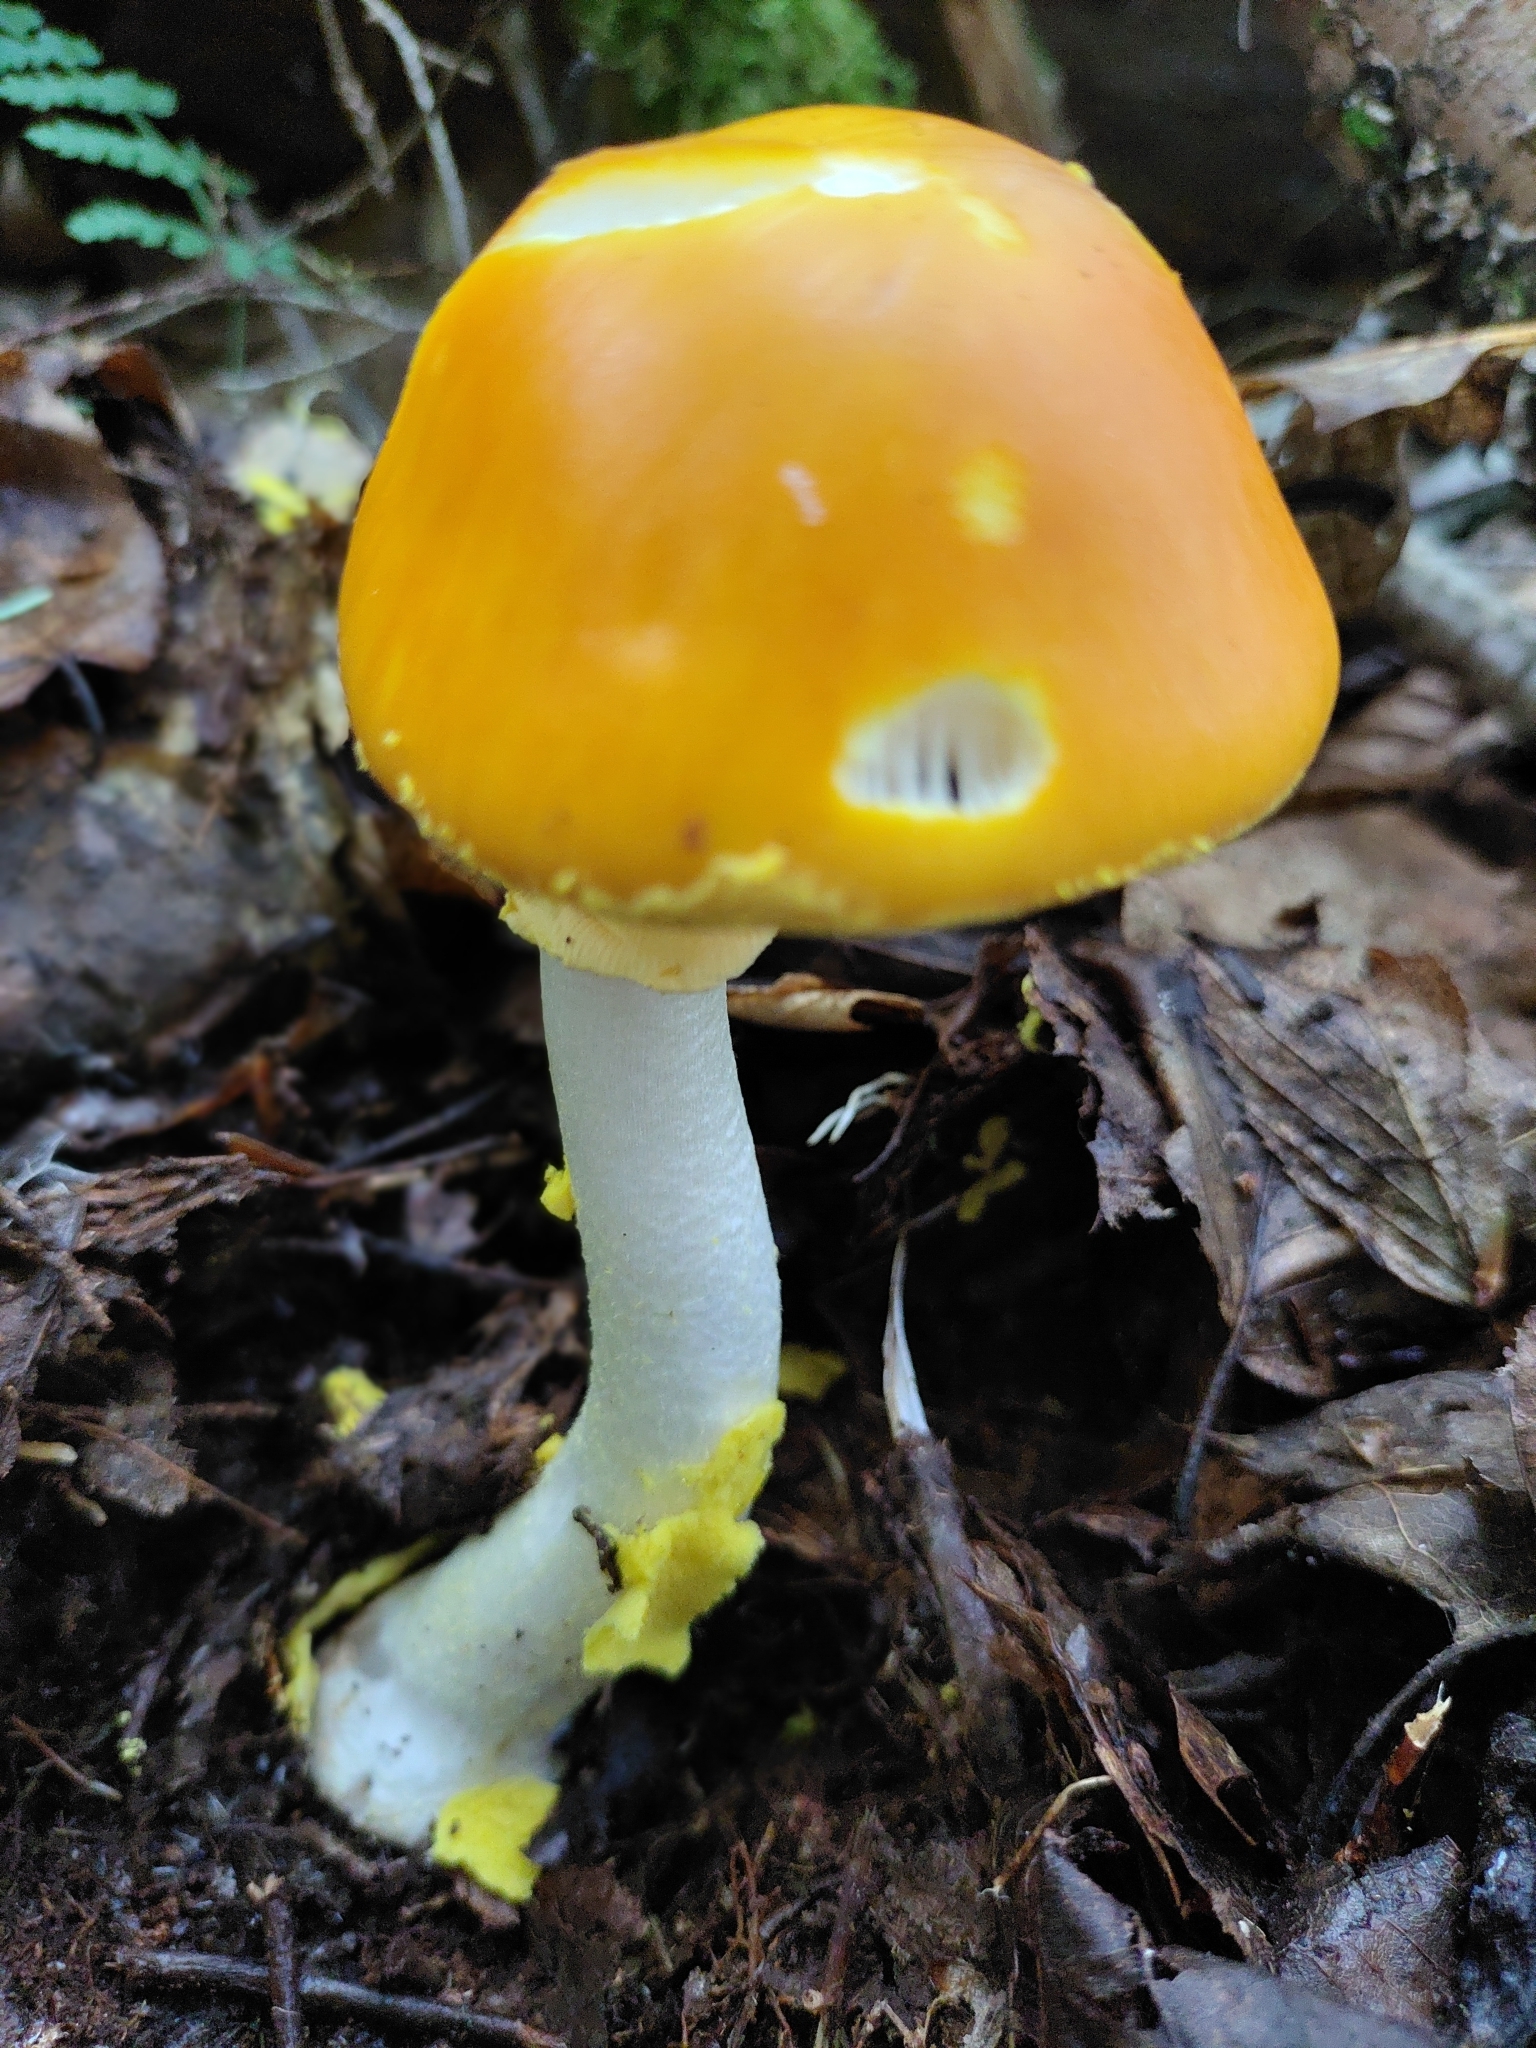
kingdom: Fungi
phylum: Basidiomycota
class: Agaricomycetes
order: Agaricales
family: Amanitaceae
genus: Amanita
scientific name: Amanita elongata
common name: Peck's yellow dust amanita
